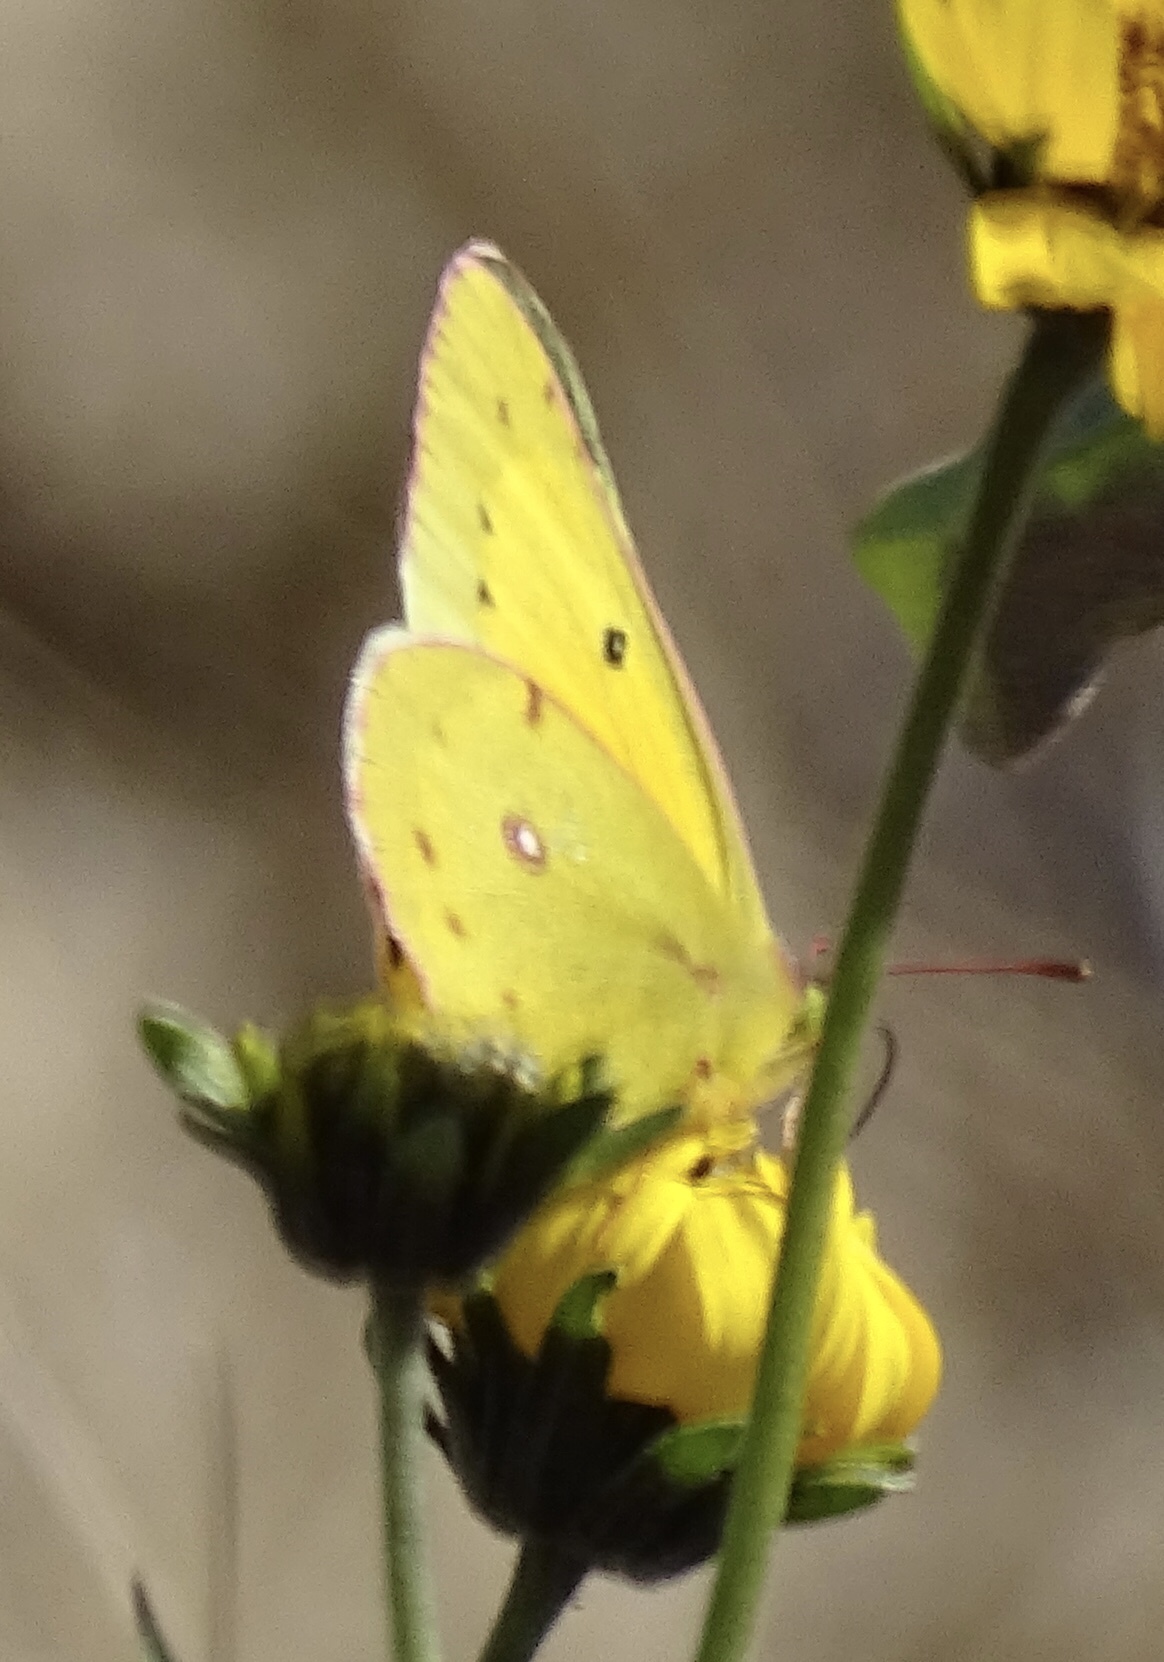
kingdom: Animalia
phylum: Arthropoda
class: Insecta
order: Lepidoptera
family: Pieridae
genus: Colias
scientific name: Colias eurytheme
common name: Alfalfa butterfly
